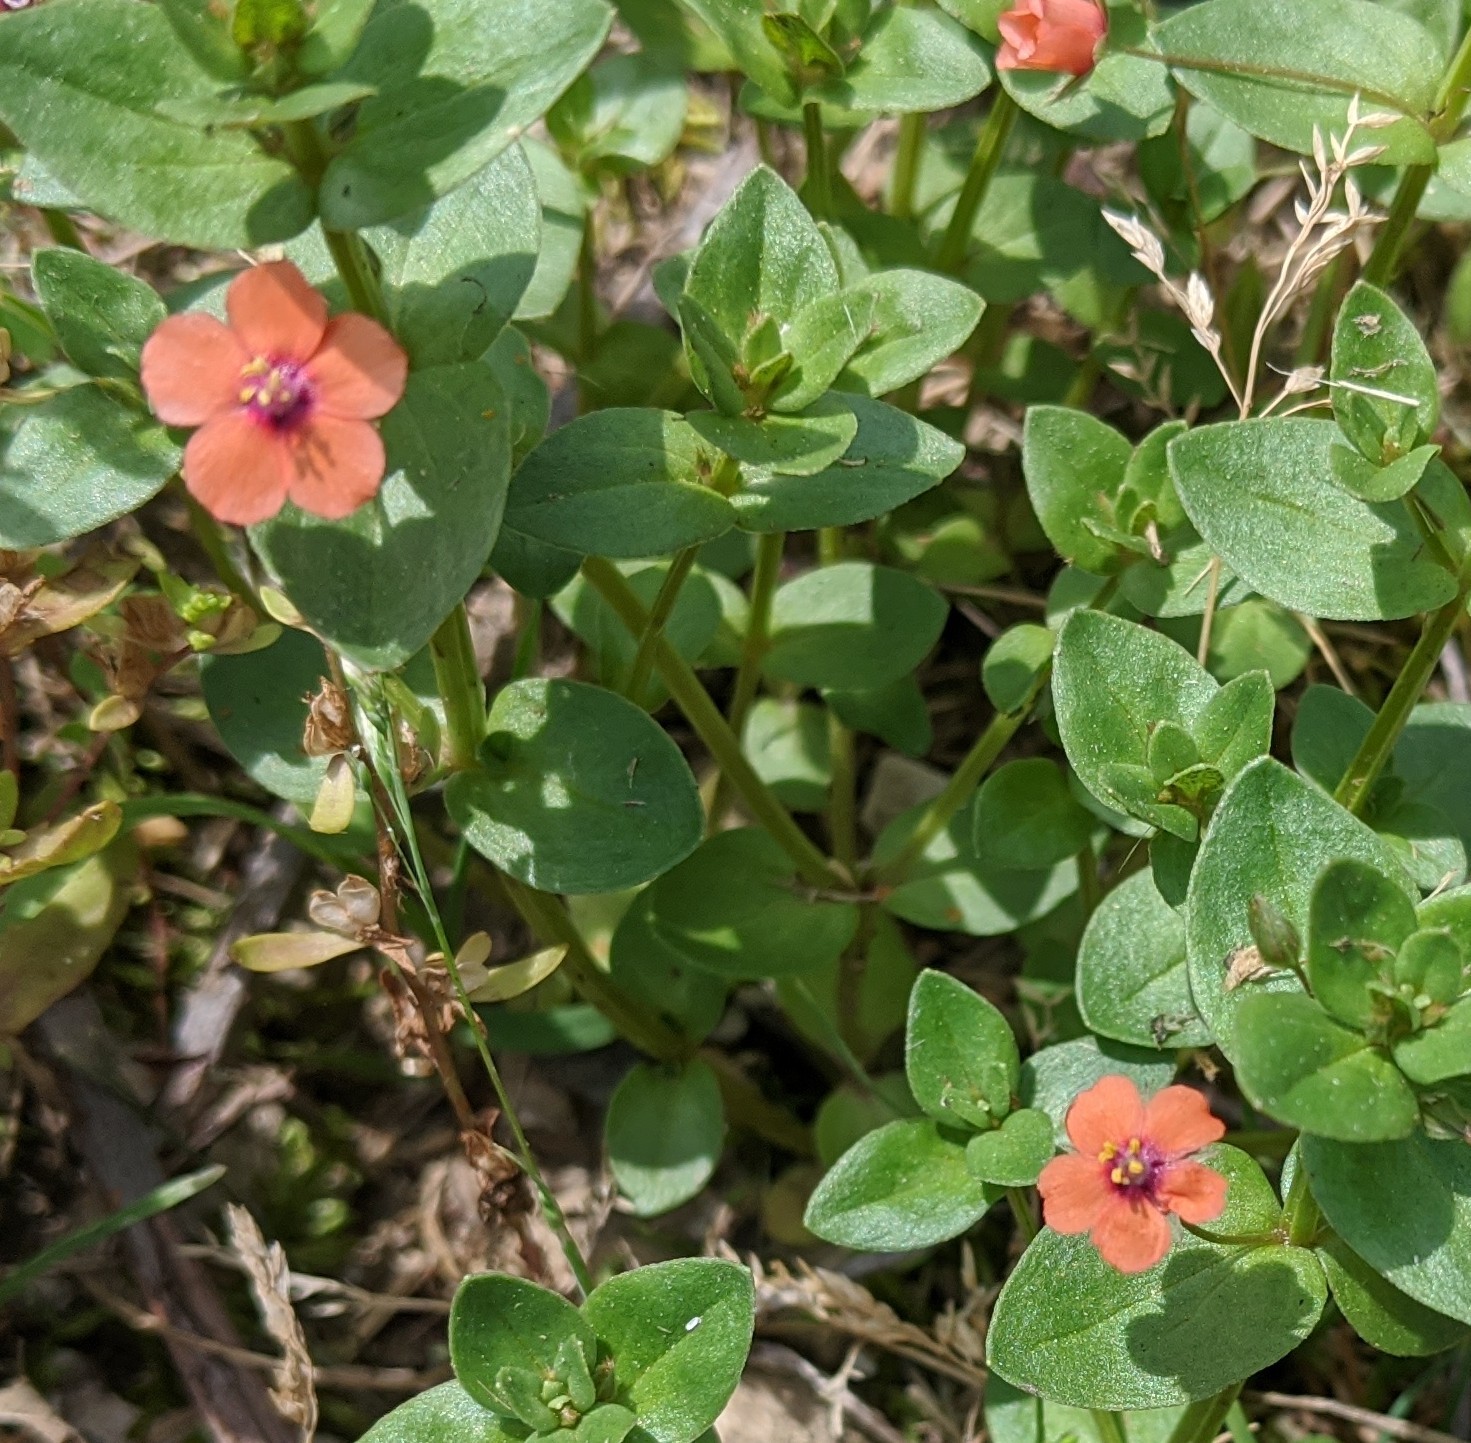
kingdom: Plantae
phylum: Tracheophyta
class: Magnoliopsida
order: Ericales
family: Primulaceae
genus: Lysimachia
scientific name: Lysimachia arvensis
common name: Scarlet pimpernel
